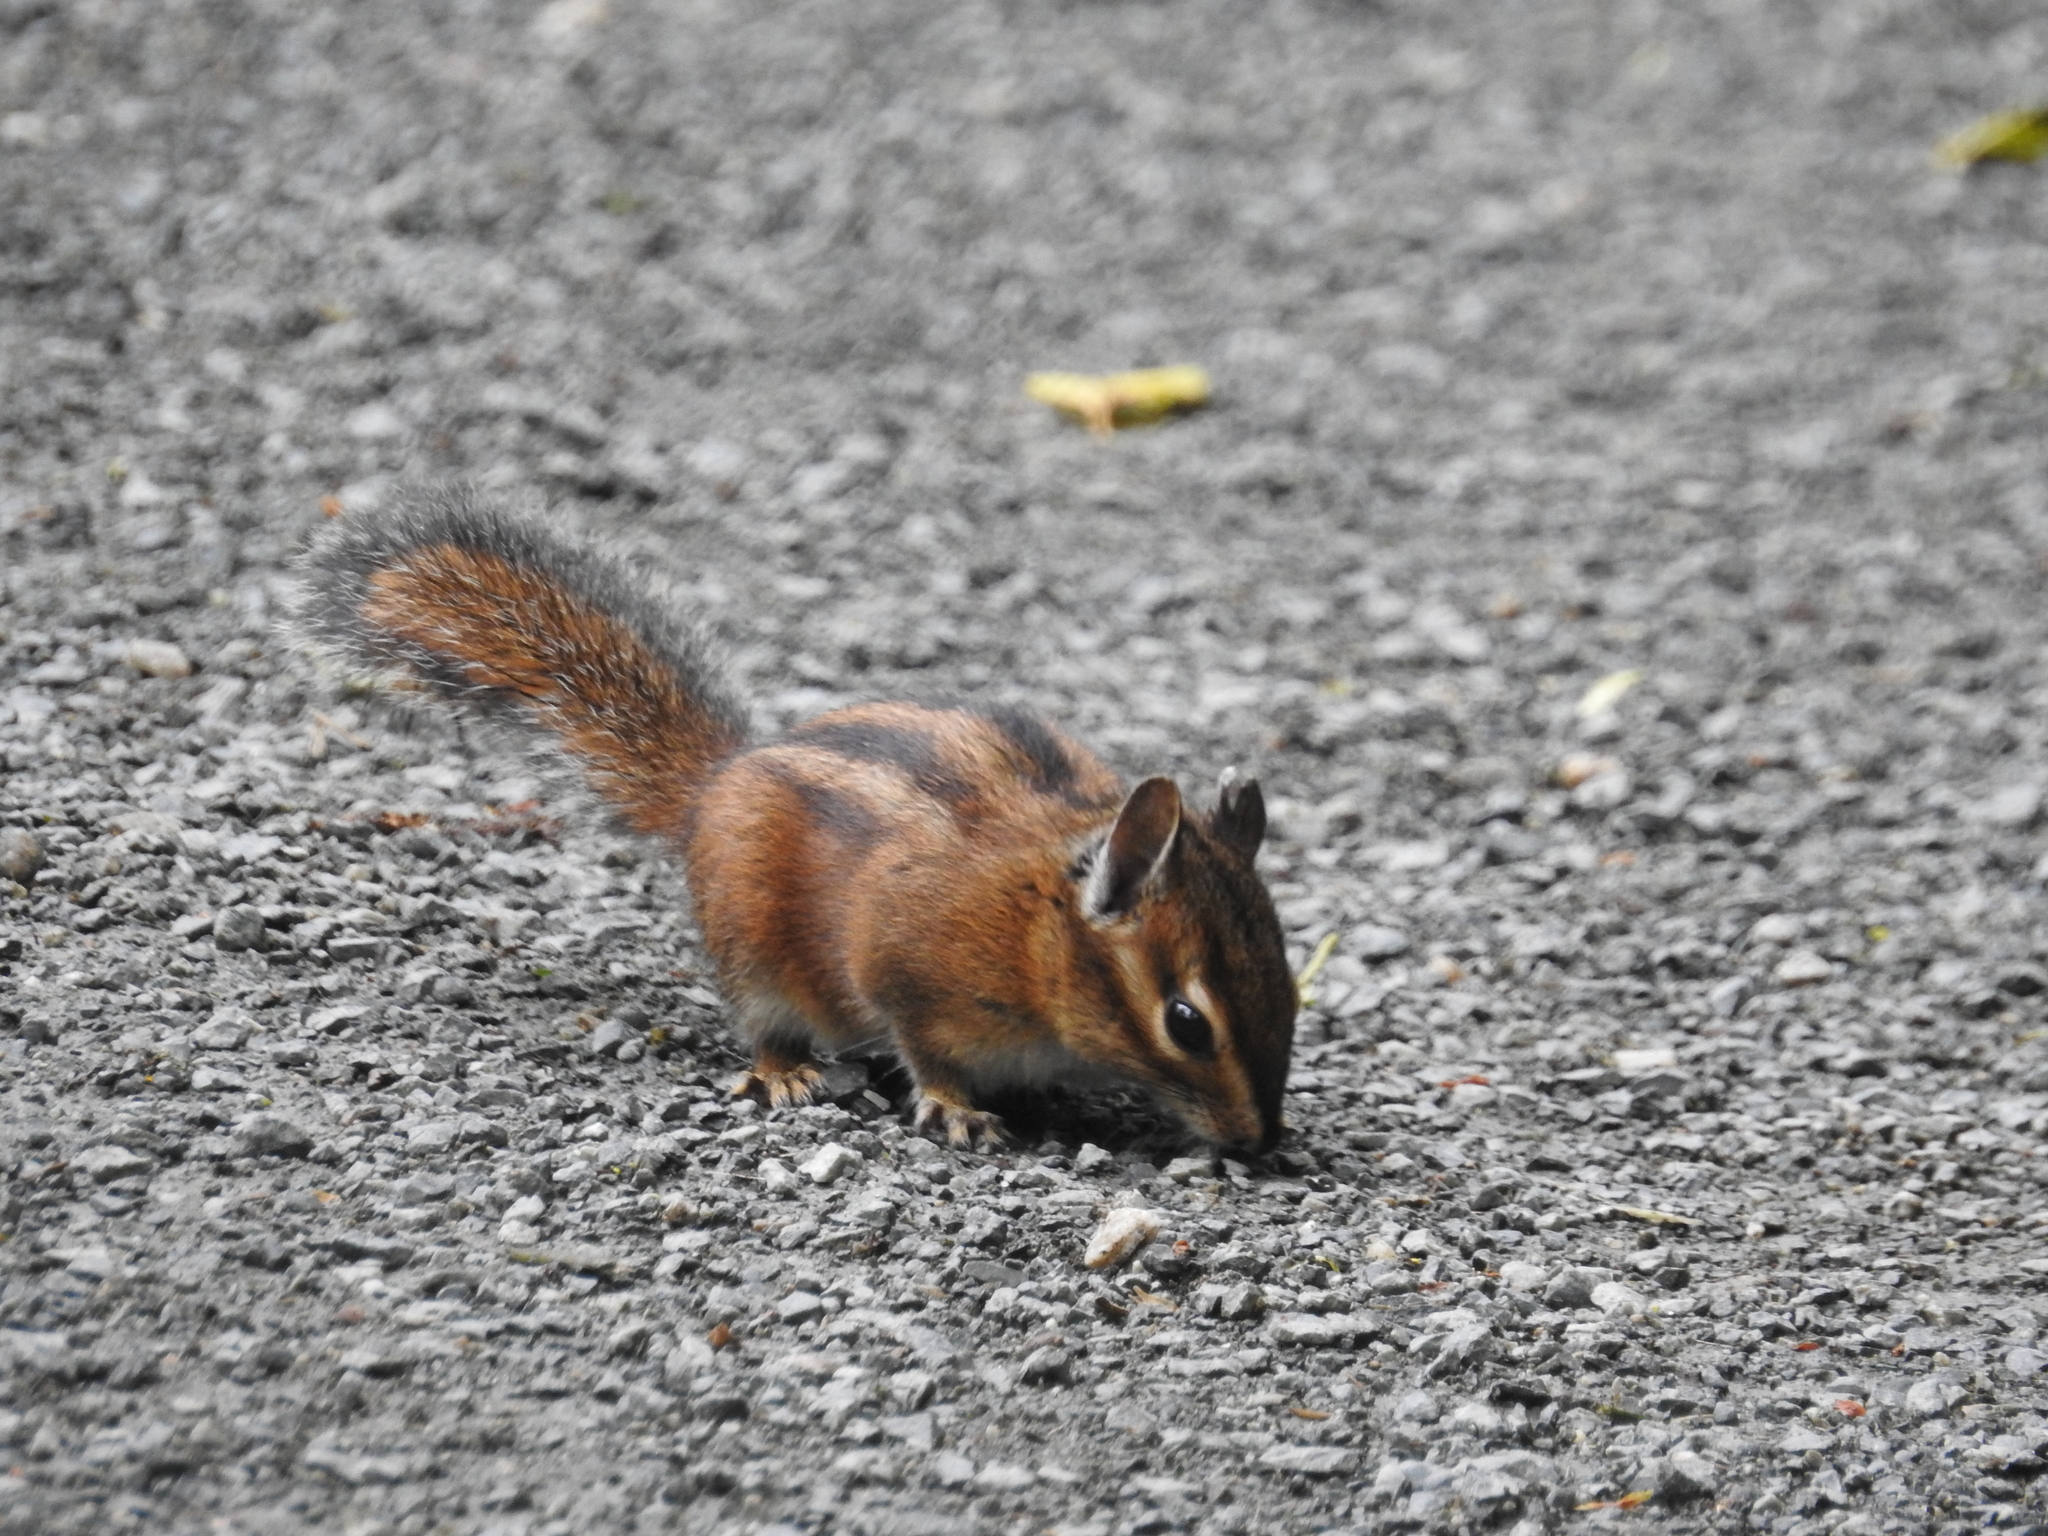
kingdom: Animalia
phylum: Chordata
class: Mammalia
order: Rodentia
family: Sciuridae
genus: Tamias
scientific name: Tamias townsendii
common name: Townsend's chipmunk
